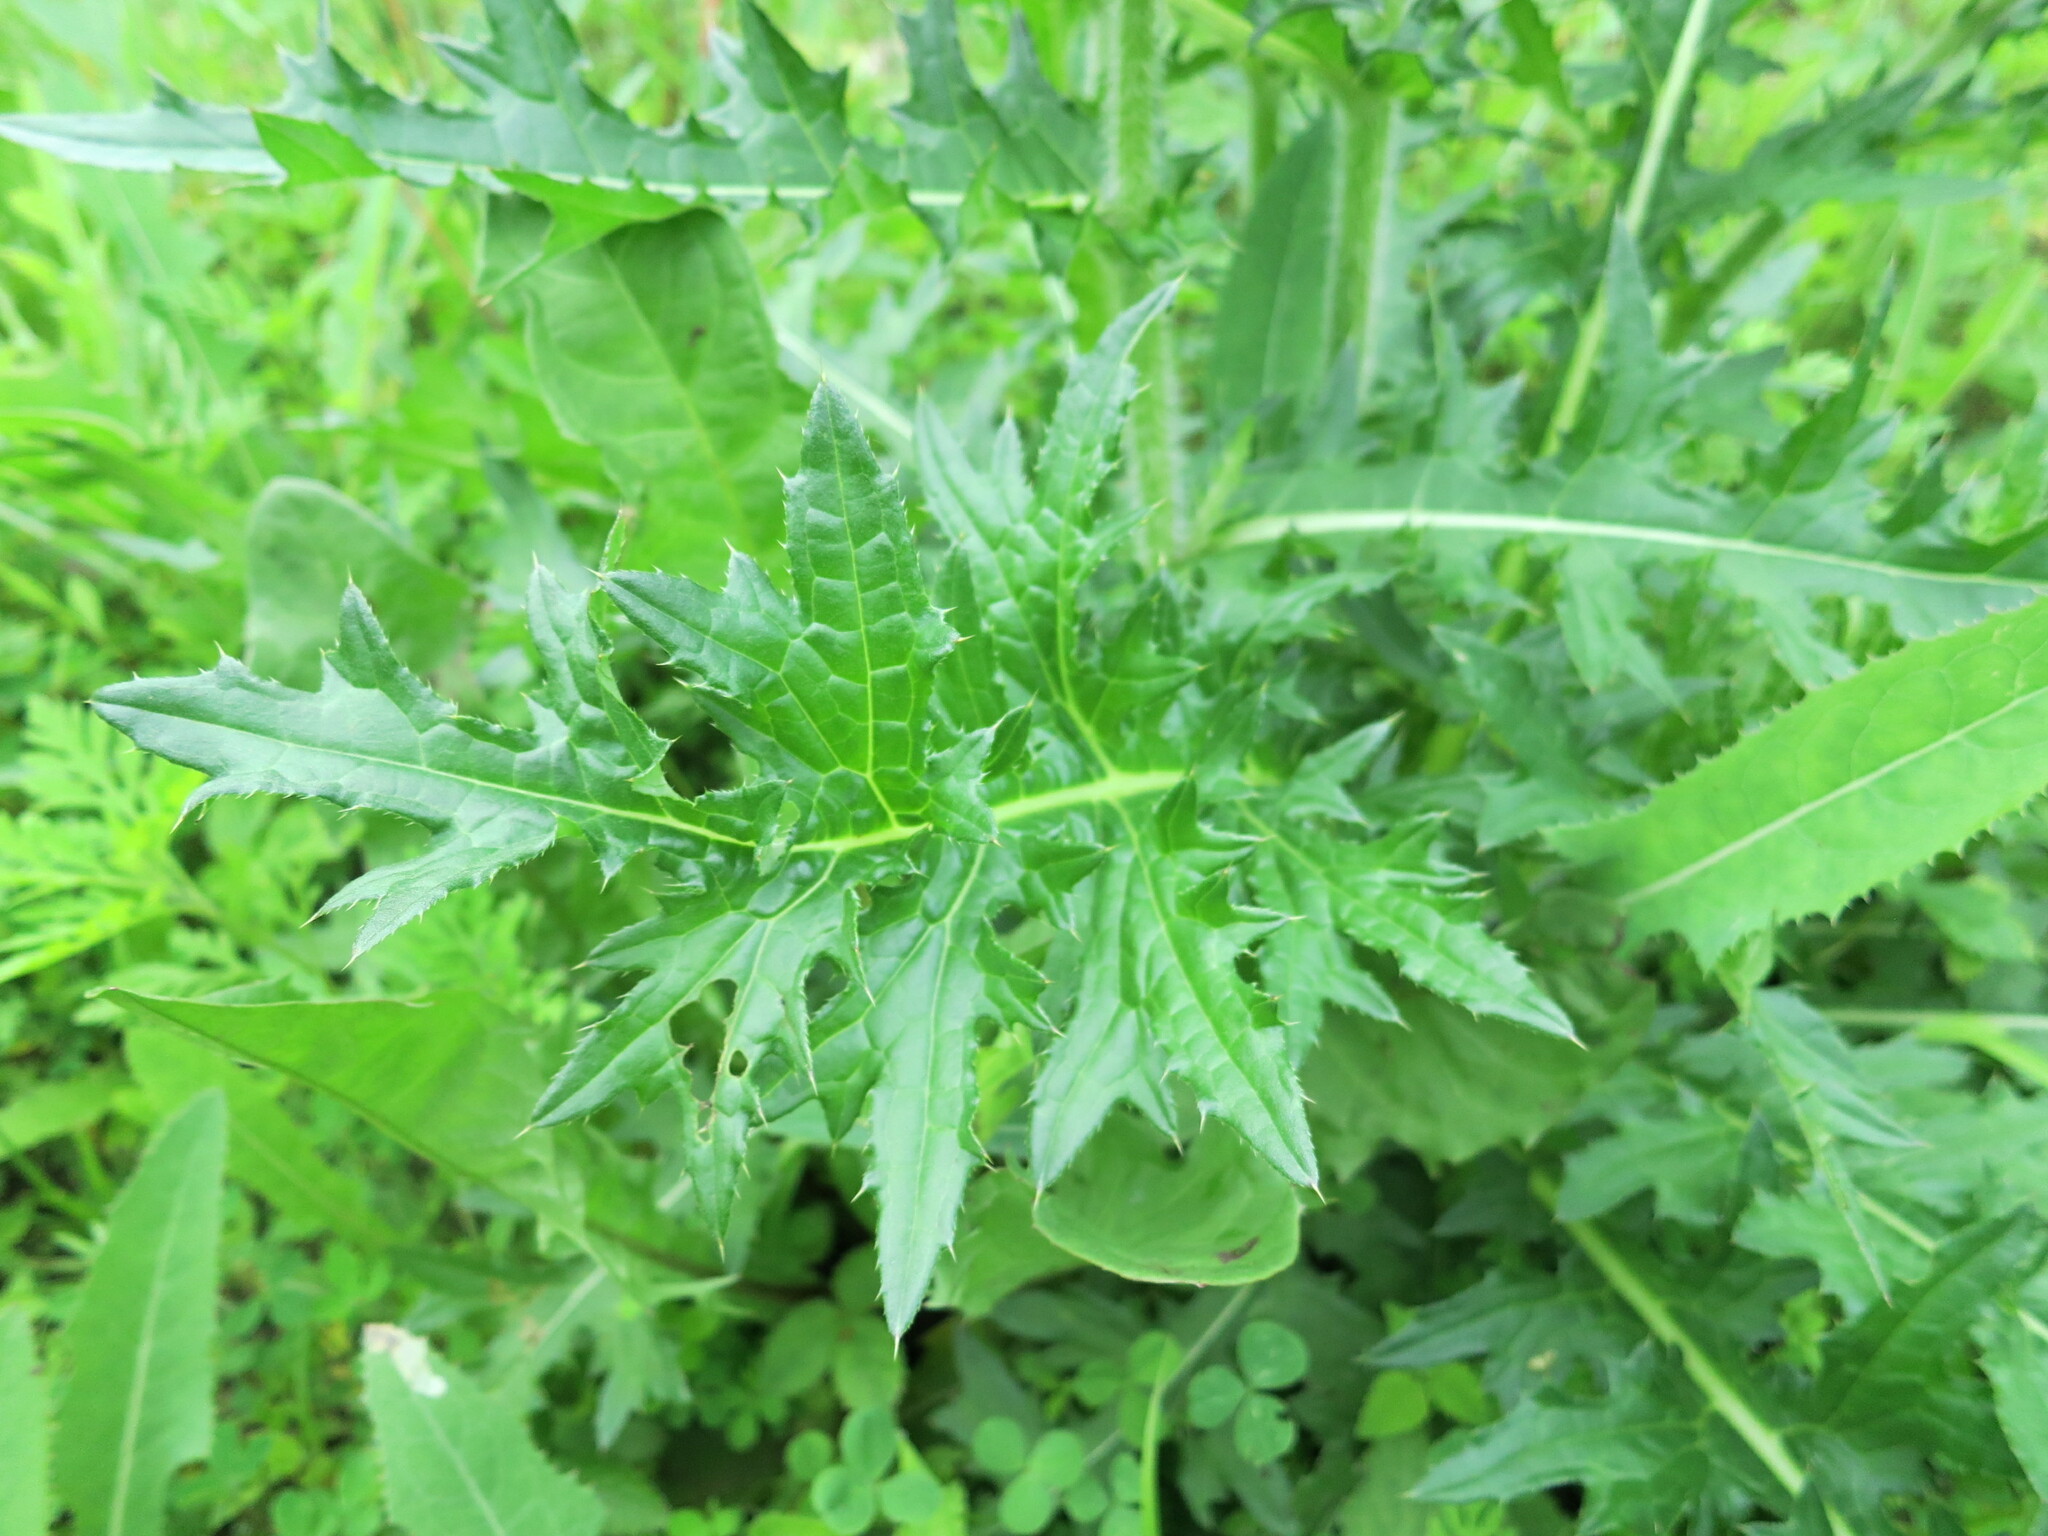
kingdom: Plantae
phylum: Tracheophyta
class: Magnoliopsida
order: Asterales
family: Asteraceae
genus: Cirsium
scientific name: Cirsium maackii
